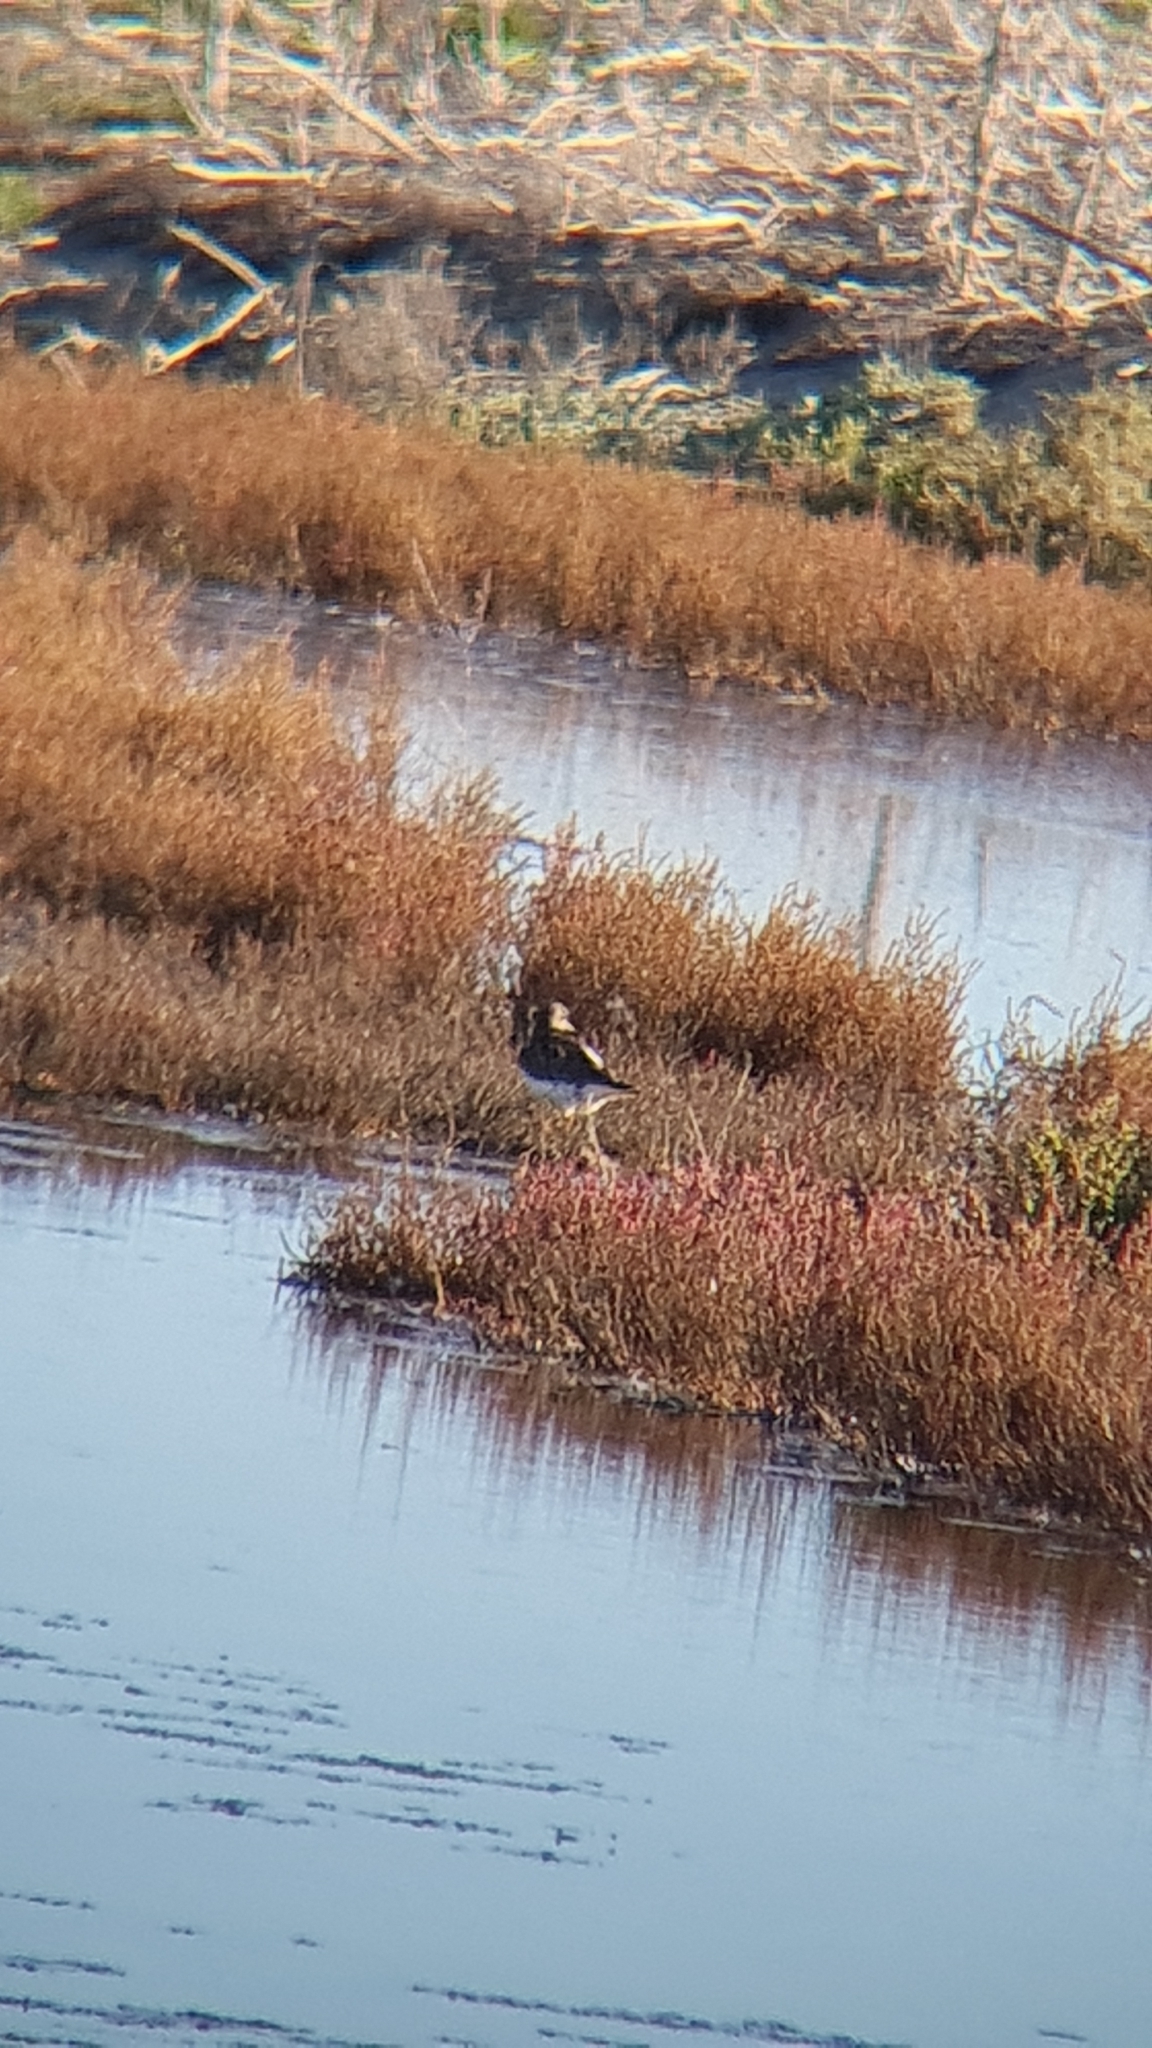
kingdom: Animalia
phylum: Chordata
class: Aves
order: Charadriiformes
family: Scolopacidae
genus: Arenaria
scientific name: Arenaria interpres
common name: Ruddy turnstone
